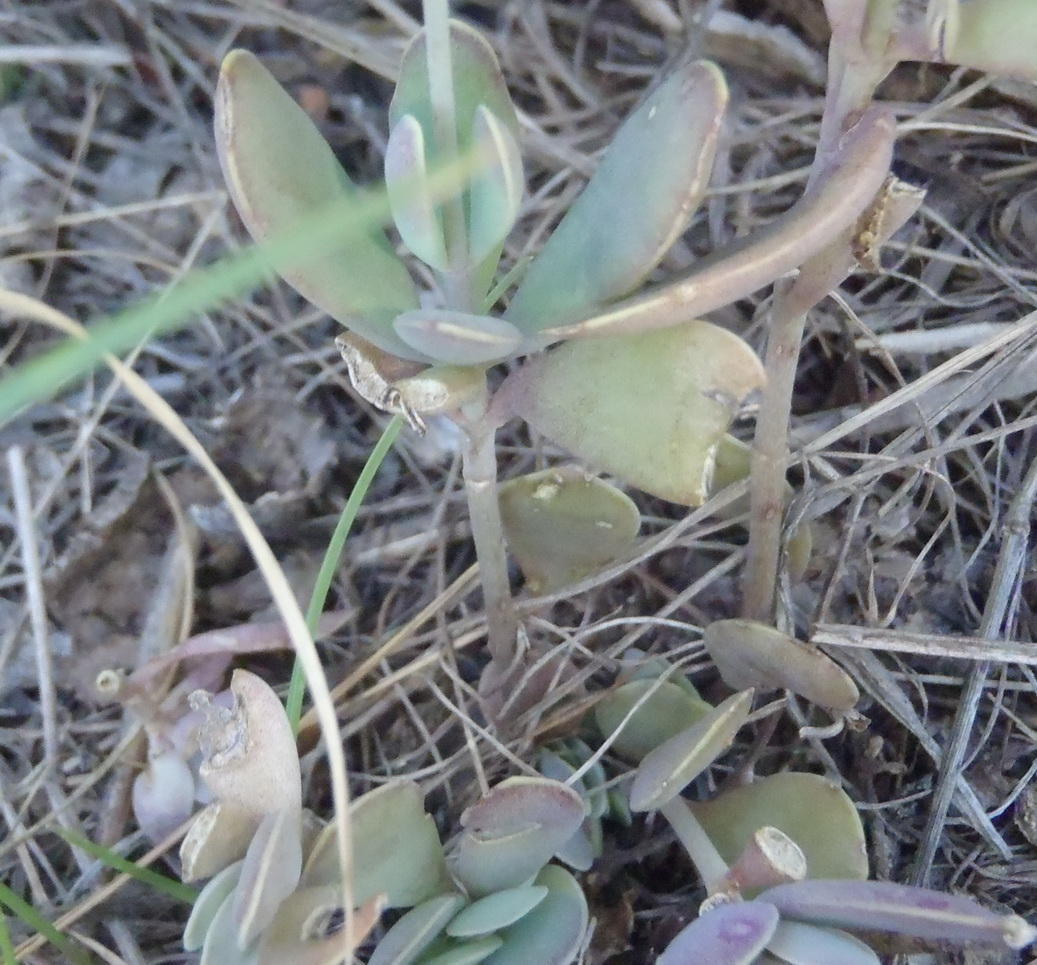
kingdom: Plantae
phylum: Tracheophyta
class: Magnoliopsida
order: Saxifragales
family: Crassulaceae
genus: Kalanchoe
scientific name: Kalanchoe rotundifolia
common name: Common kalanchoe
